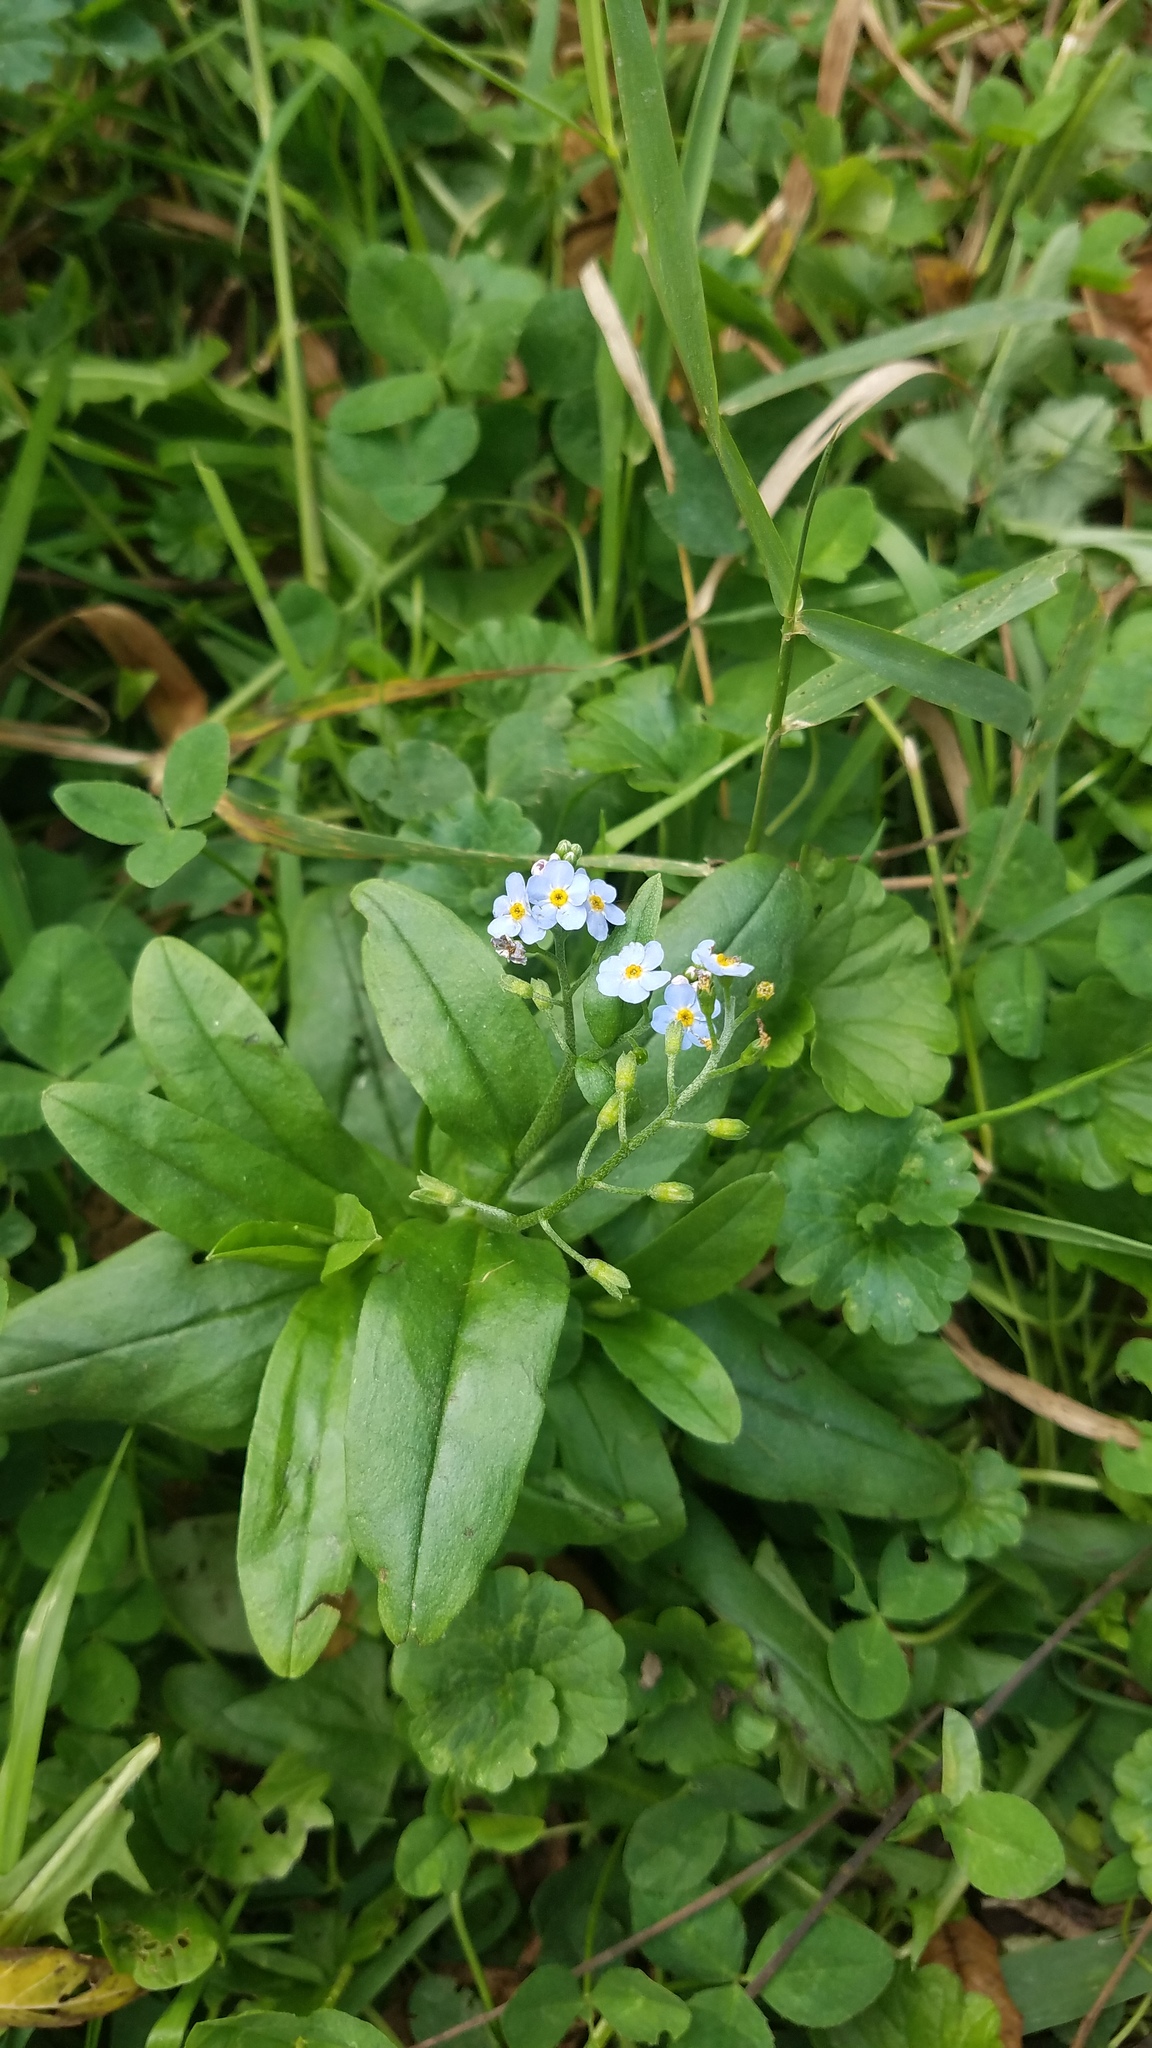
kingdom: Plantae
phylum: Tracheophyta
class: Magnoliopsida
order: Boraginales
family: Boraginaceae
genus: Myosotis
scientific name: Myosotis scorpioides
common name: Water forget-me-not
